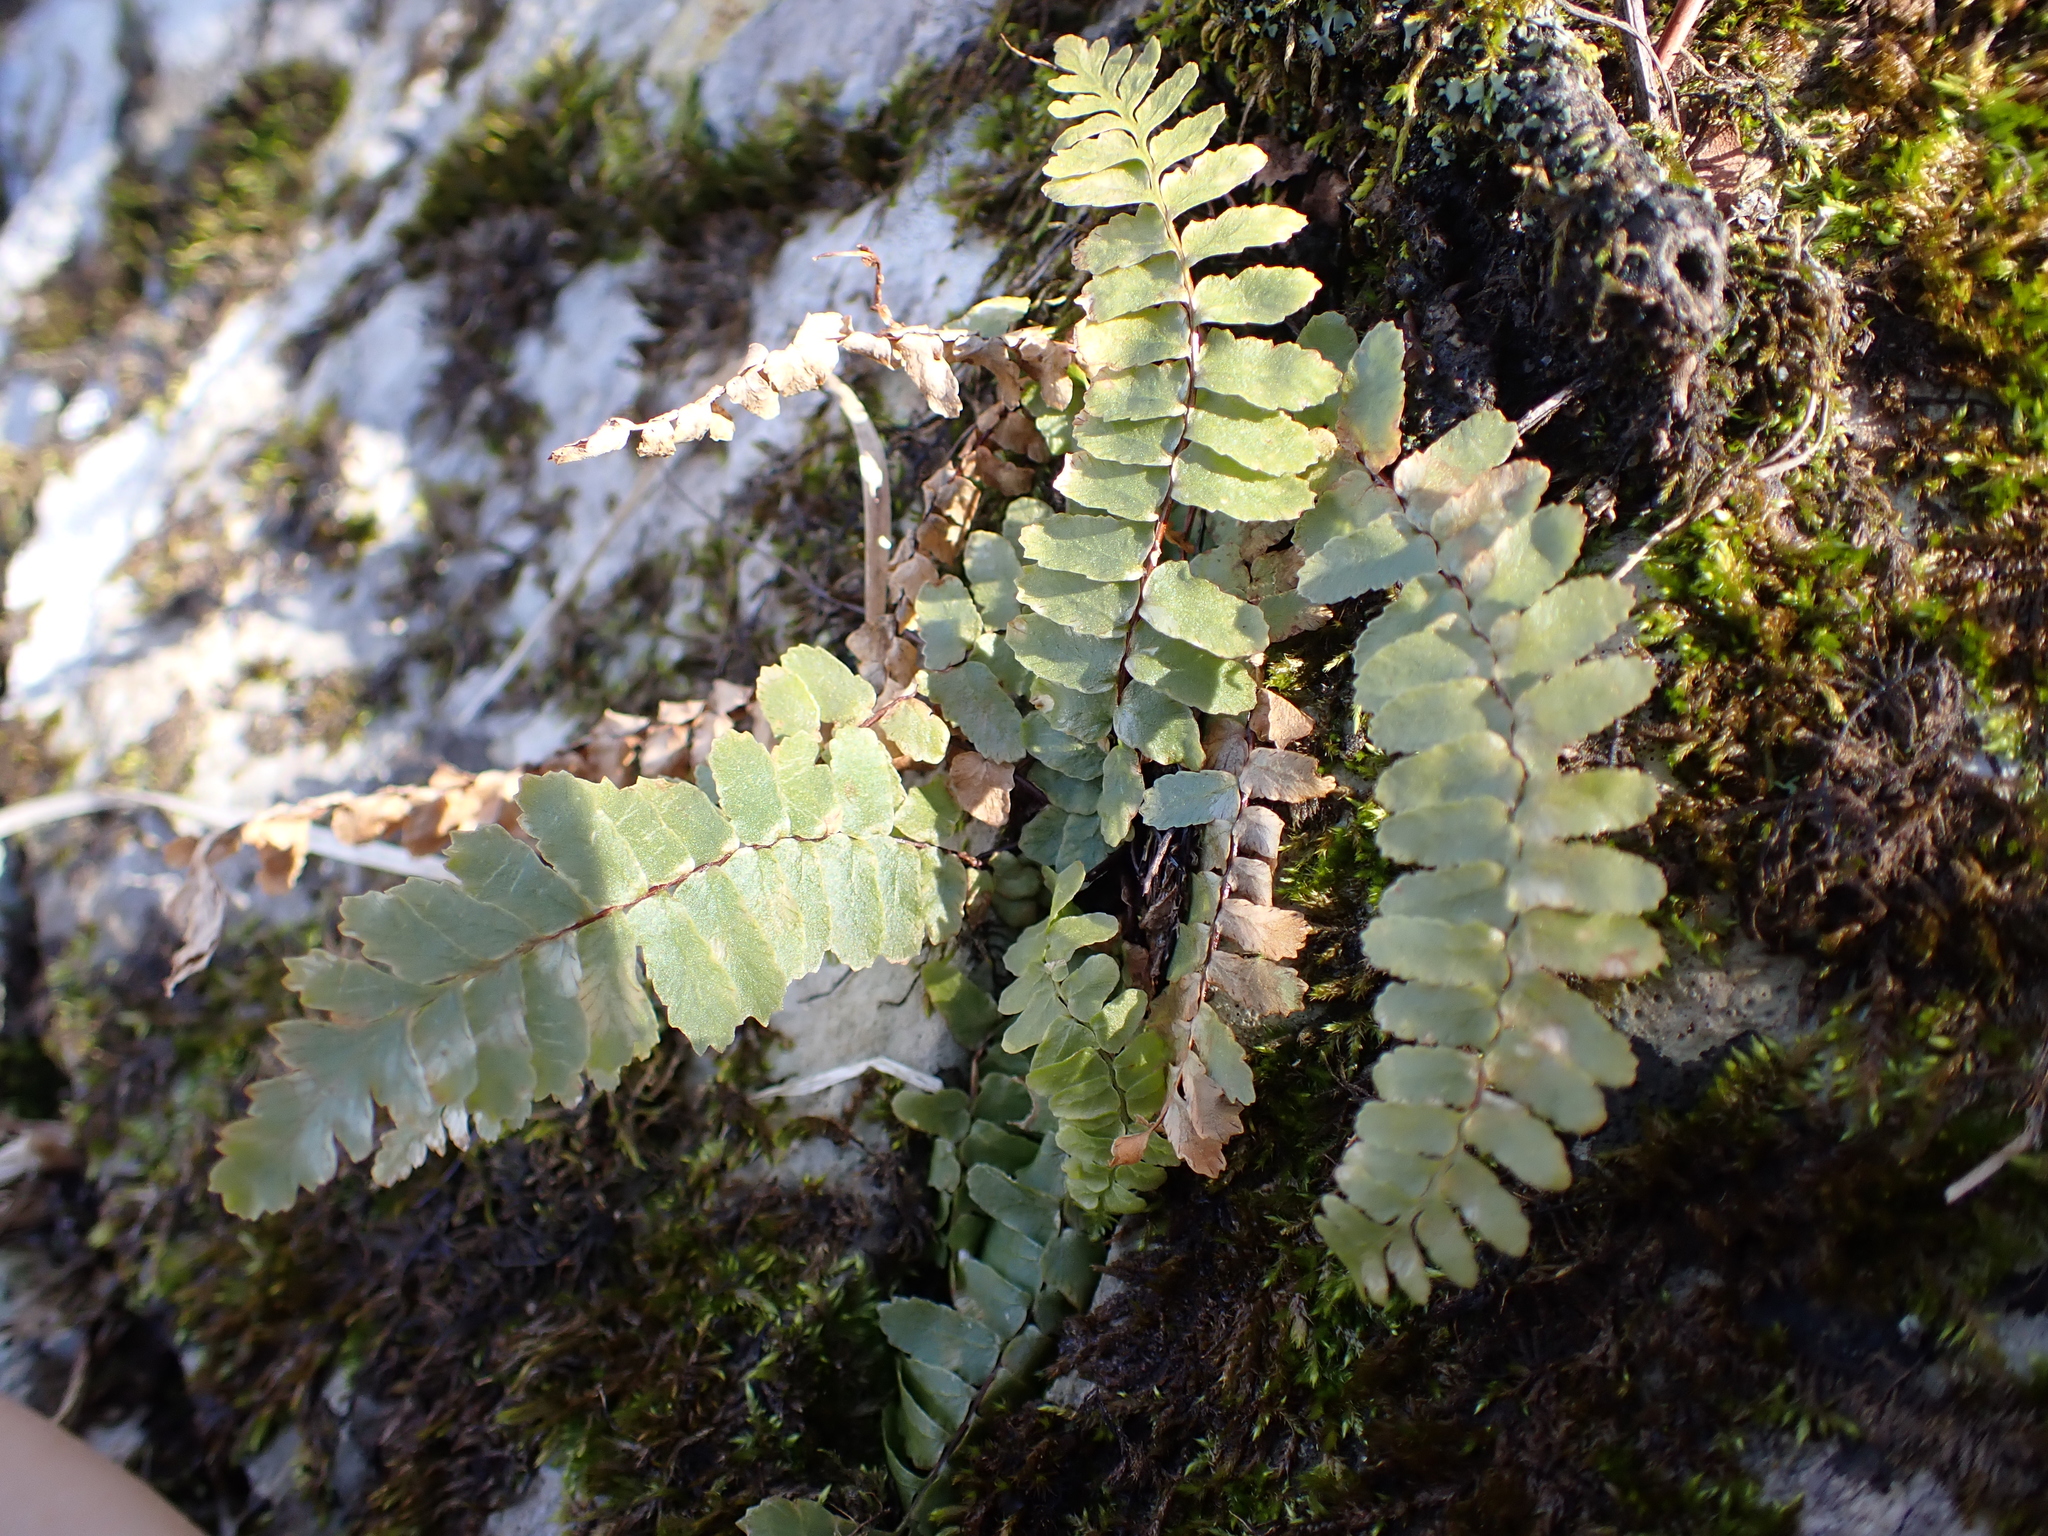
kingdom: Plantae
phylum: Tracheophyta
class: Polypodiopsida
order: Polypodiales
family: Aspleniaceae
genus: Asplenium
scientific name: Asplenium platyneuron
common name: Ebony spleenwort
